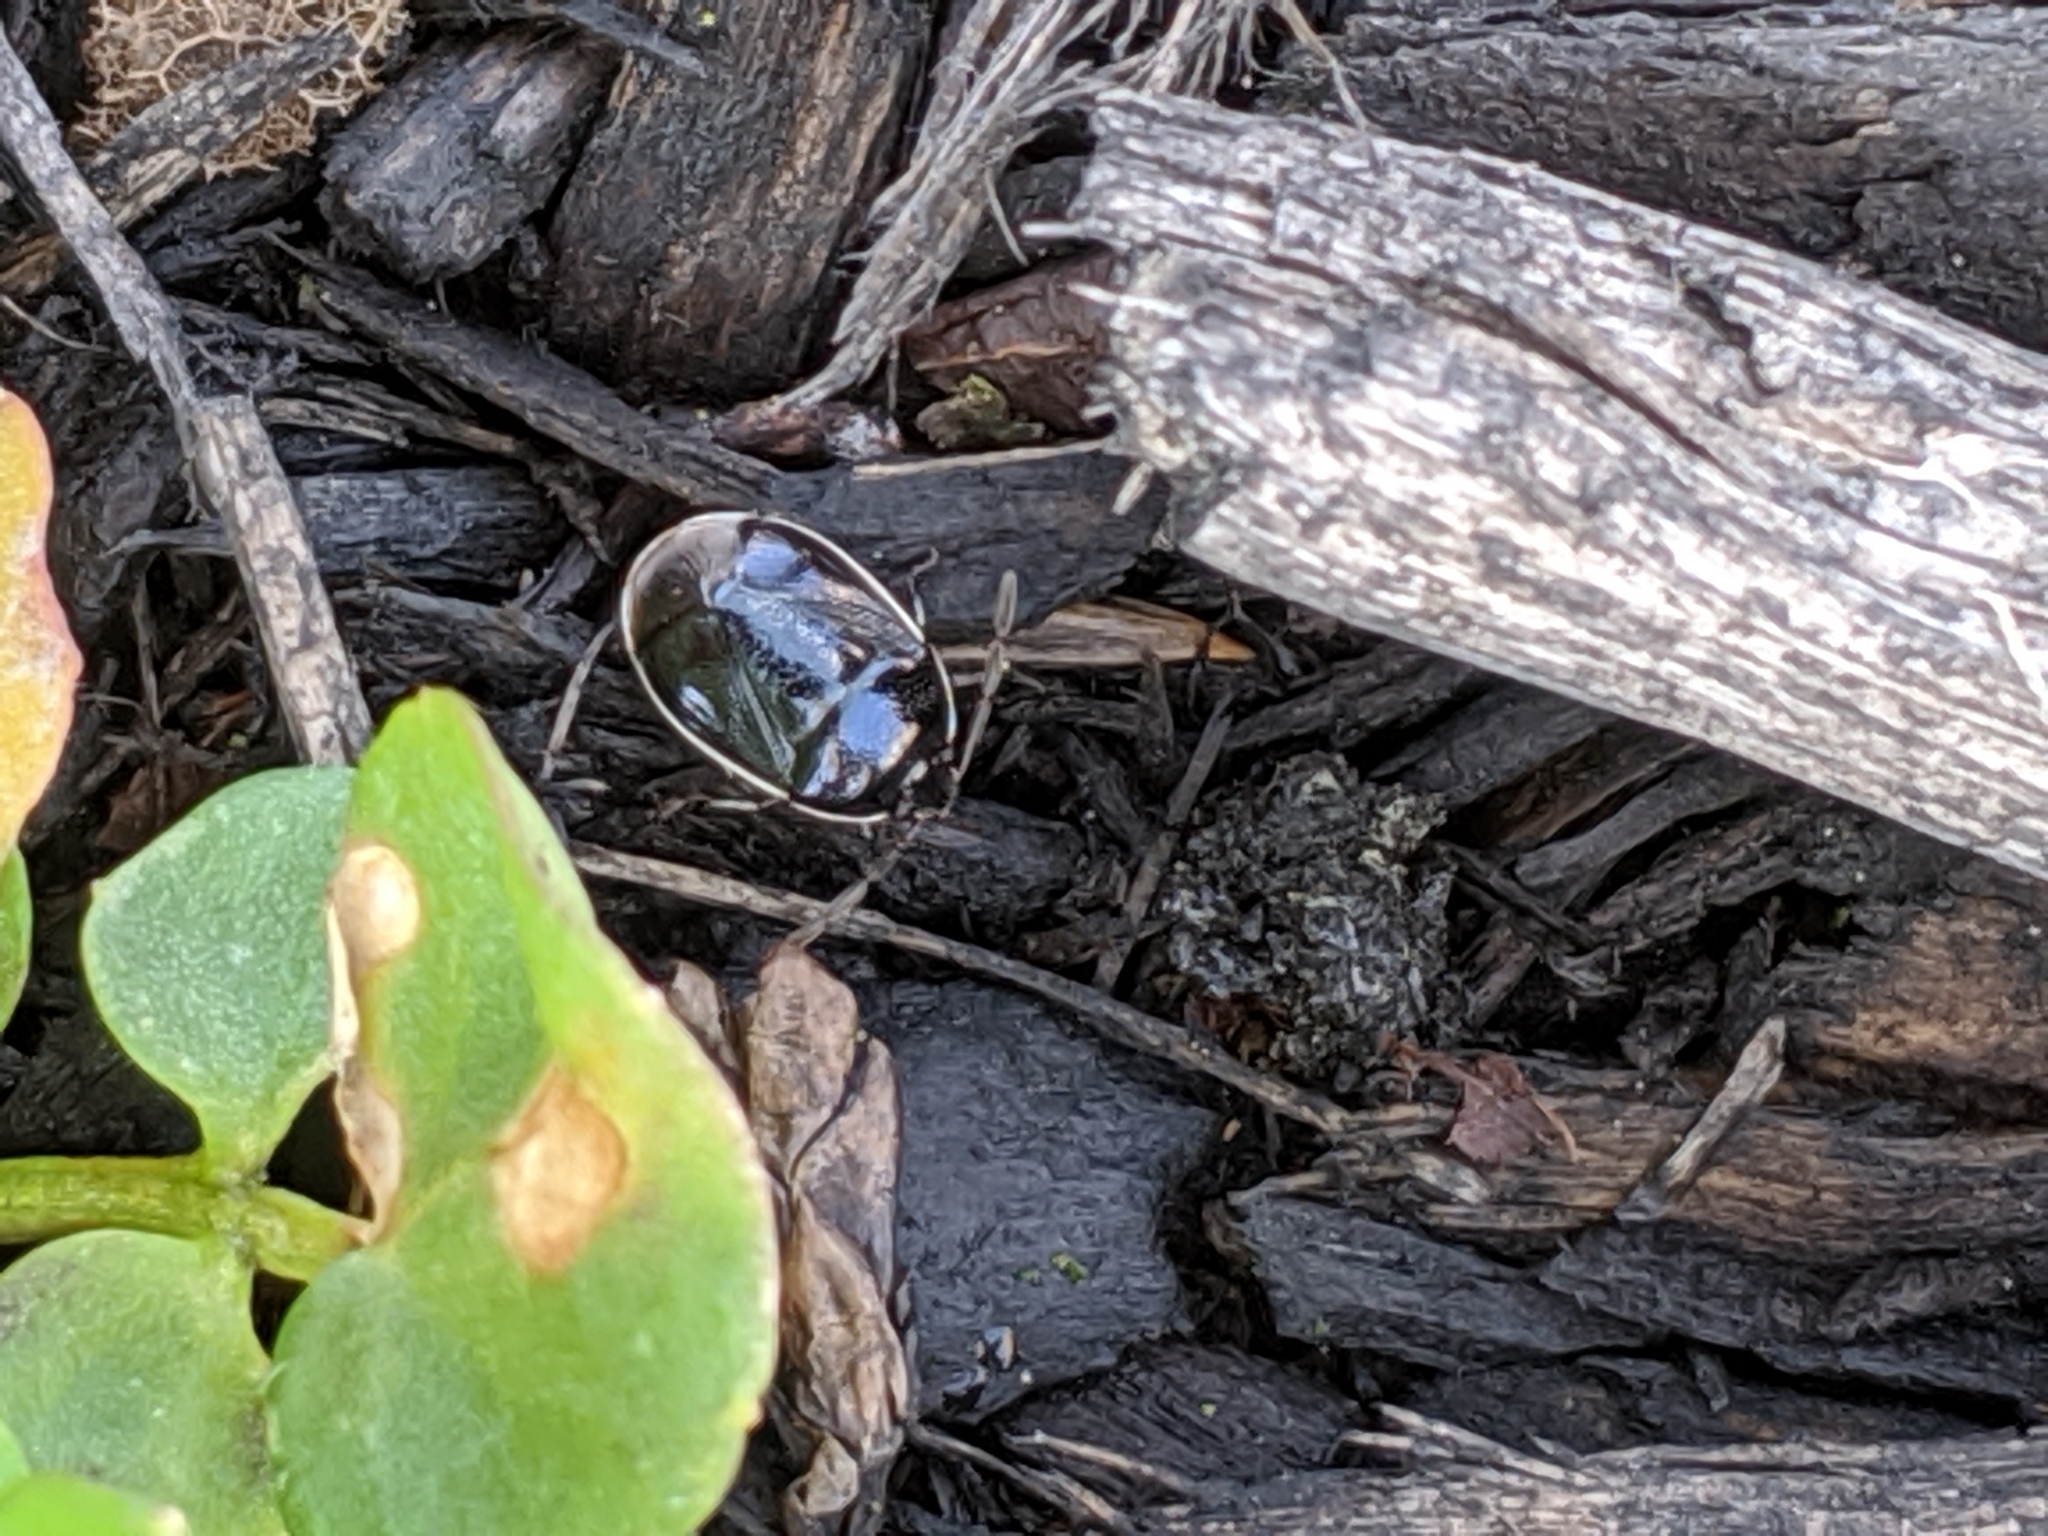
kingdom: Animalia
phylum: Arthropoda
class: Insecta
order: Hemiptera
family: Cydnidae
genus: Sehirus
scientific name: Sehirus cinctus
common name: White-margined burrower bug
